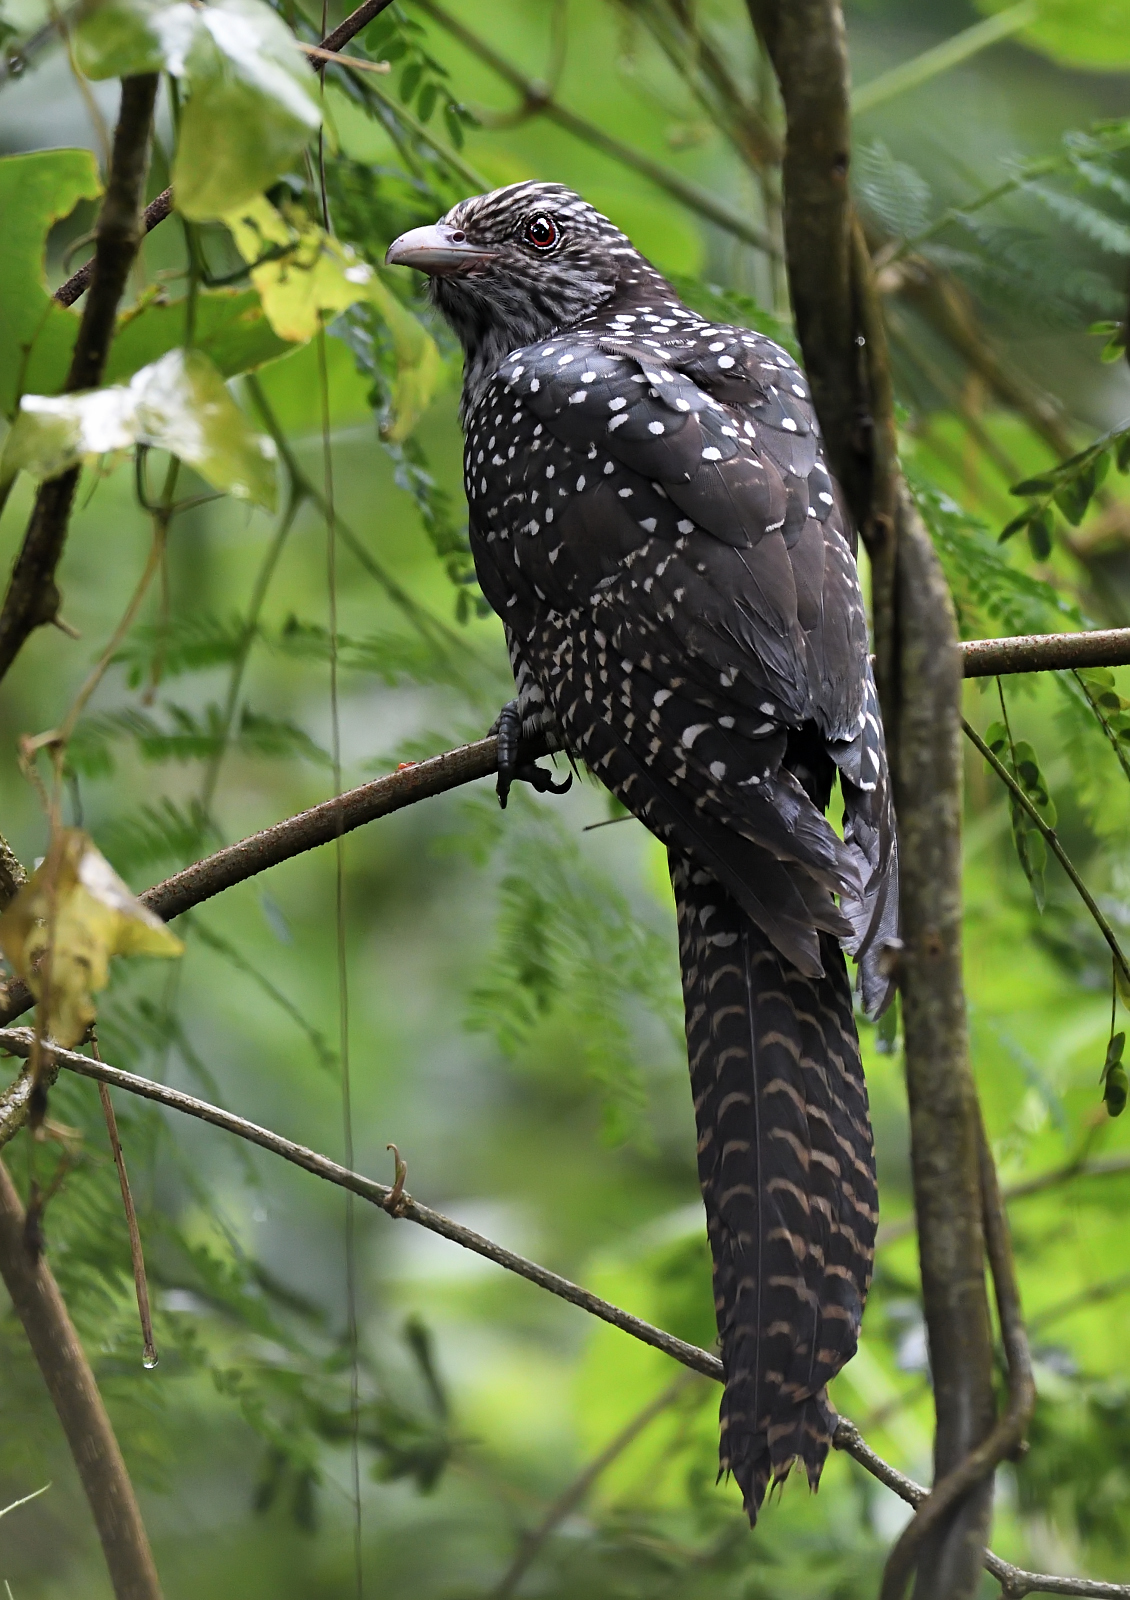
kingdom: Animalia
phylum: Chordata
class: Aves
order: Cuculiformes
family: Cuculidae
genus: Eudynamys
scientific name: Eudynamys scolopaceus
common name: Asian koel
